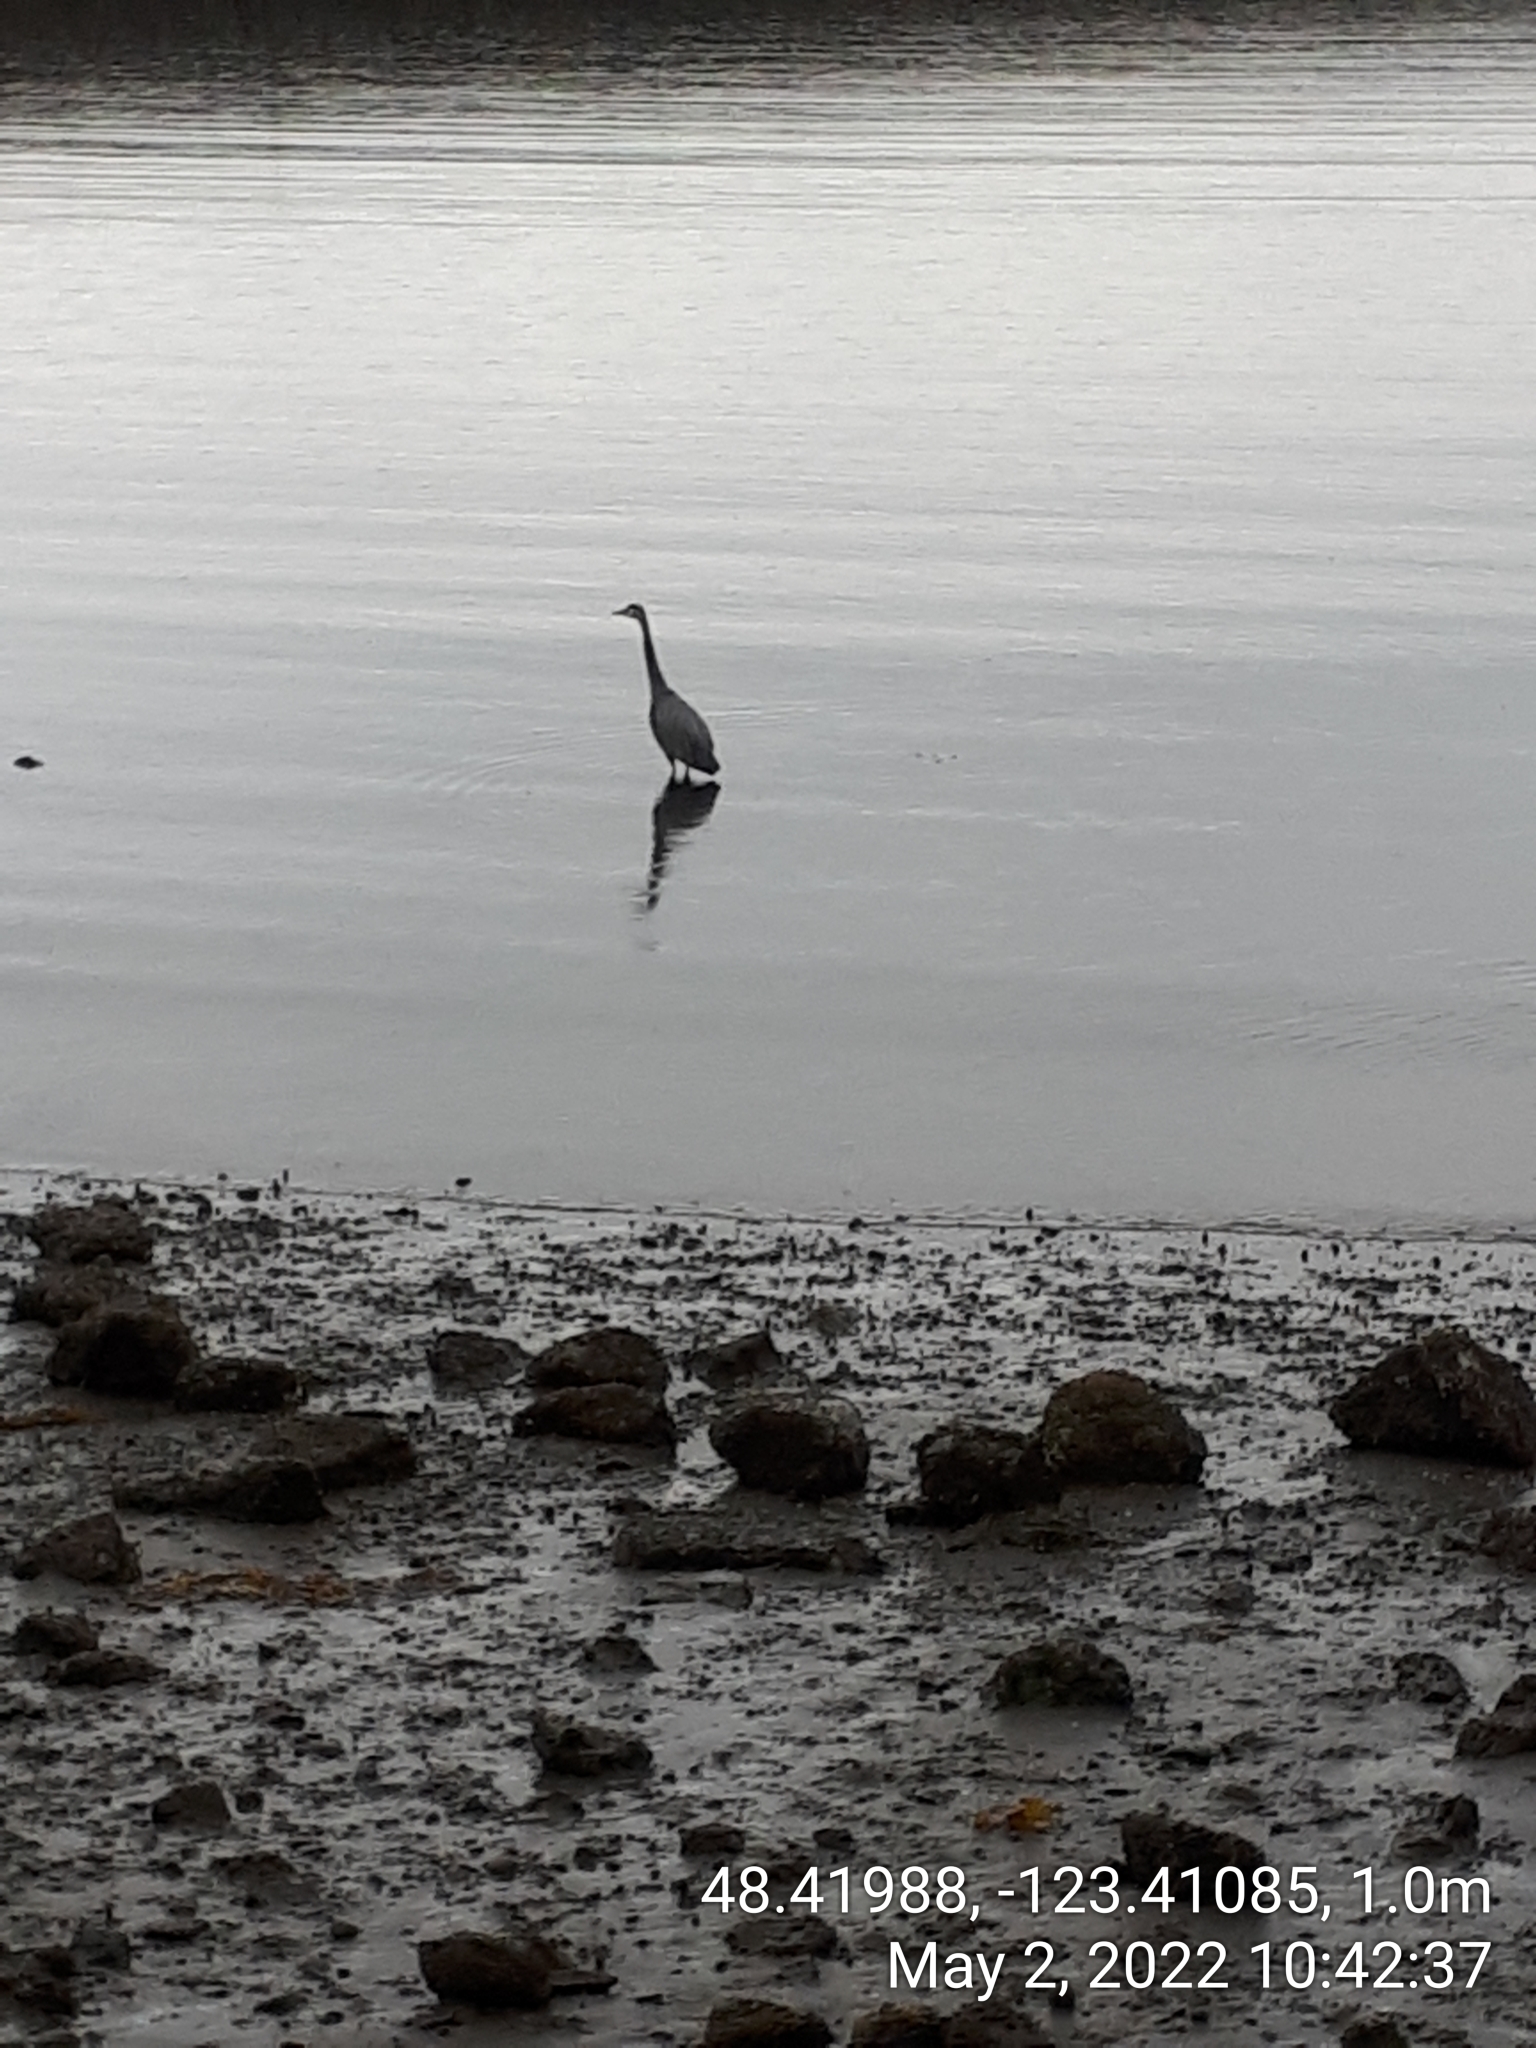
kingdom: Animalia
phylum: Chordata
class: Aves
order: Pelecaniformes
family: Ardeidae
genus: Ardea
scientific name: Ardea herodias
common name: Great blue heron
